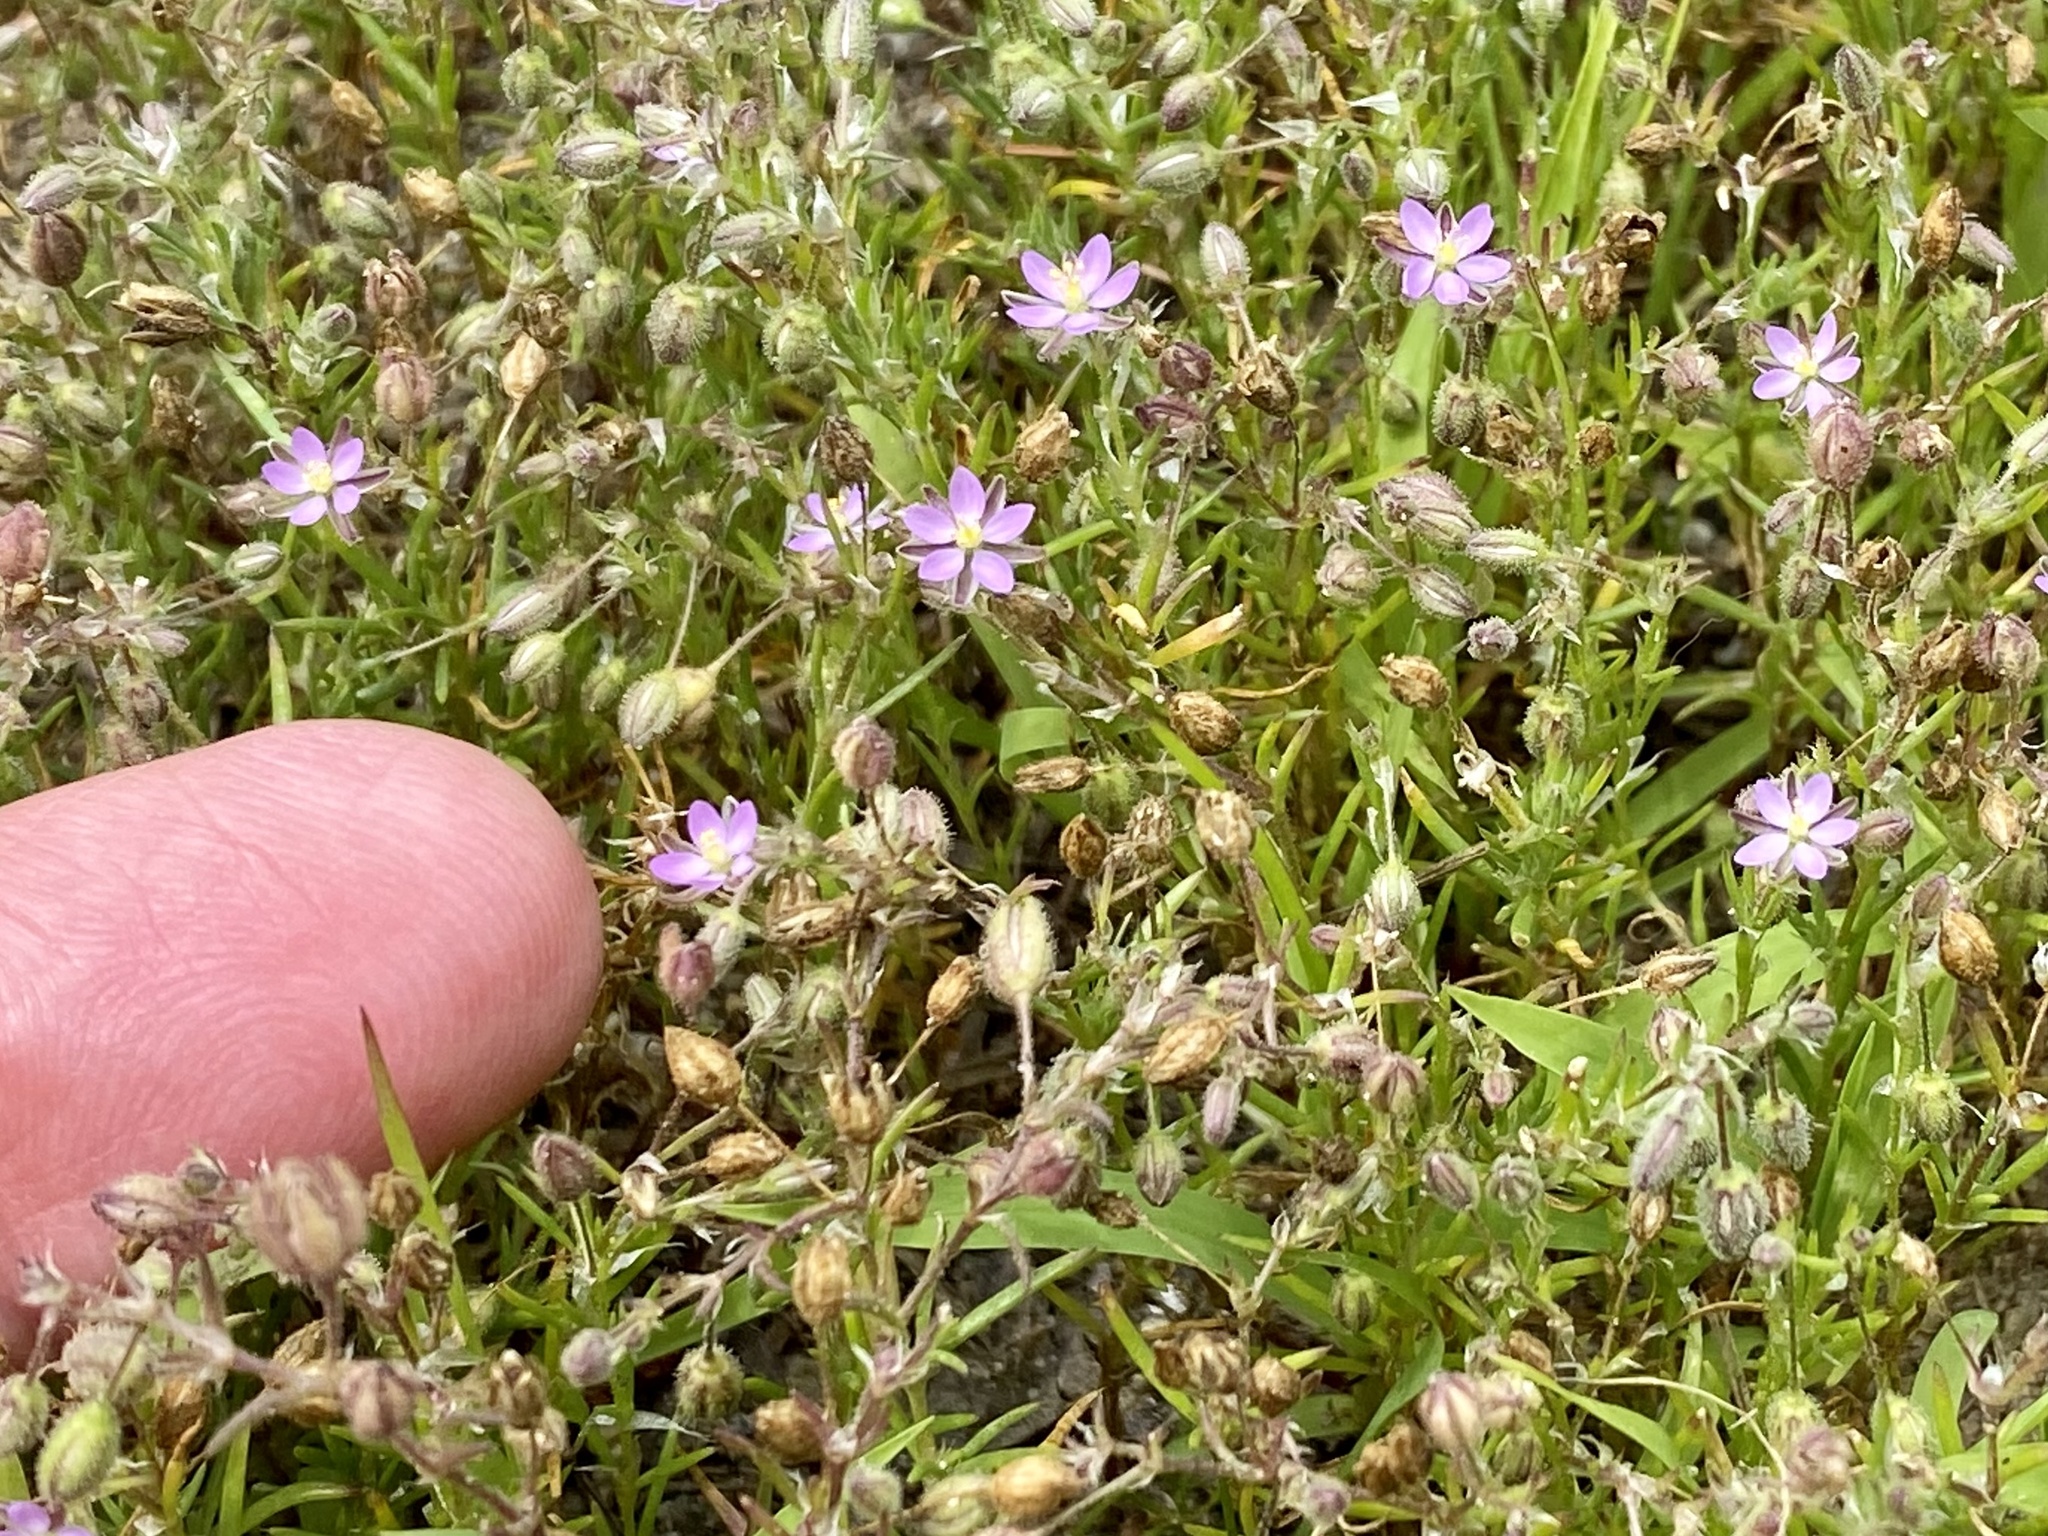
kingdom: Plantae
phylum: Tracheophyta
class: Magnoliopsida
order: Caryophyllales
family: Caryophyllaceae
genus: Spergularia
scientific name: Spergularia rubra
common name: Red sand-spurrey
